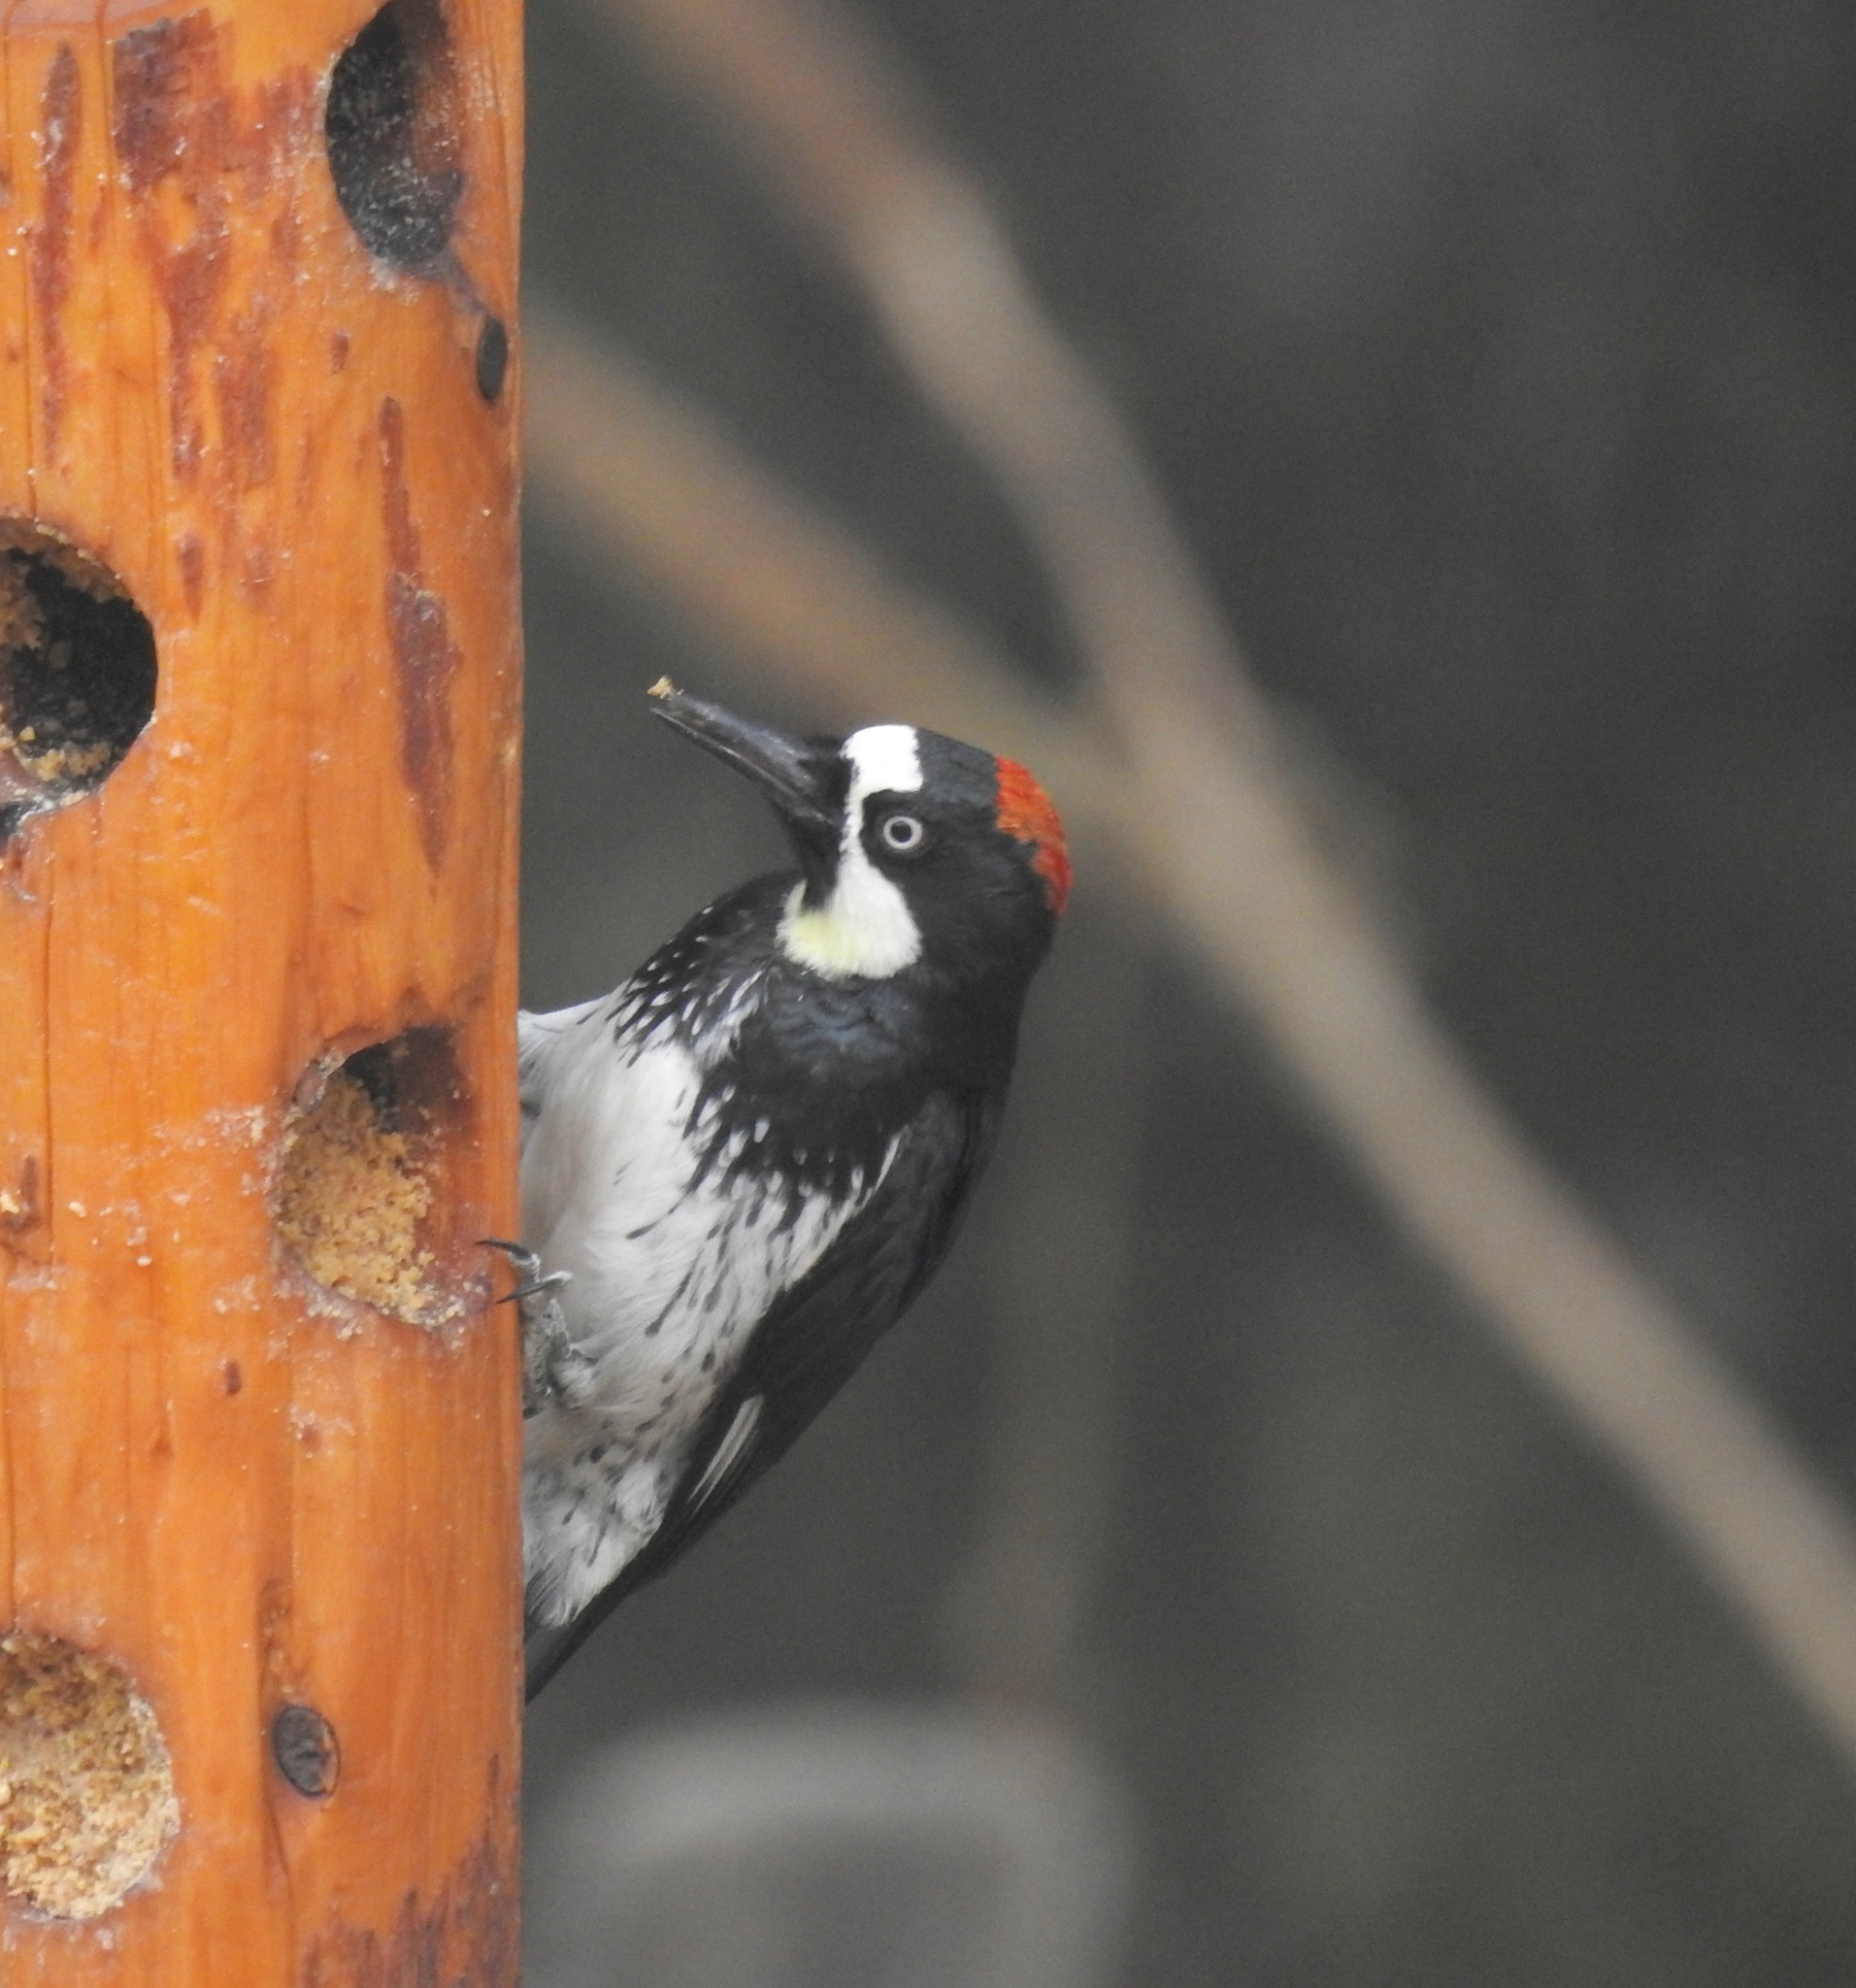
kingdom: Animalia
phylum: Chordata
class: Aves
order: Piciformes
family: Picidae
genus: Melanerpes
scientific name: Melanerpes formicivorus
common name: Acorn woodpecker
